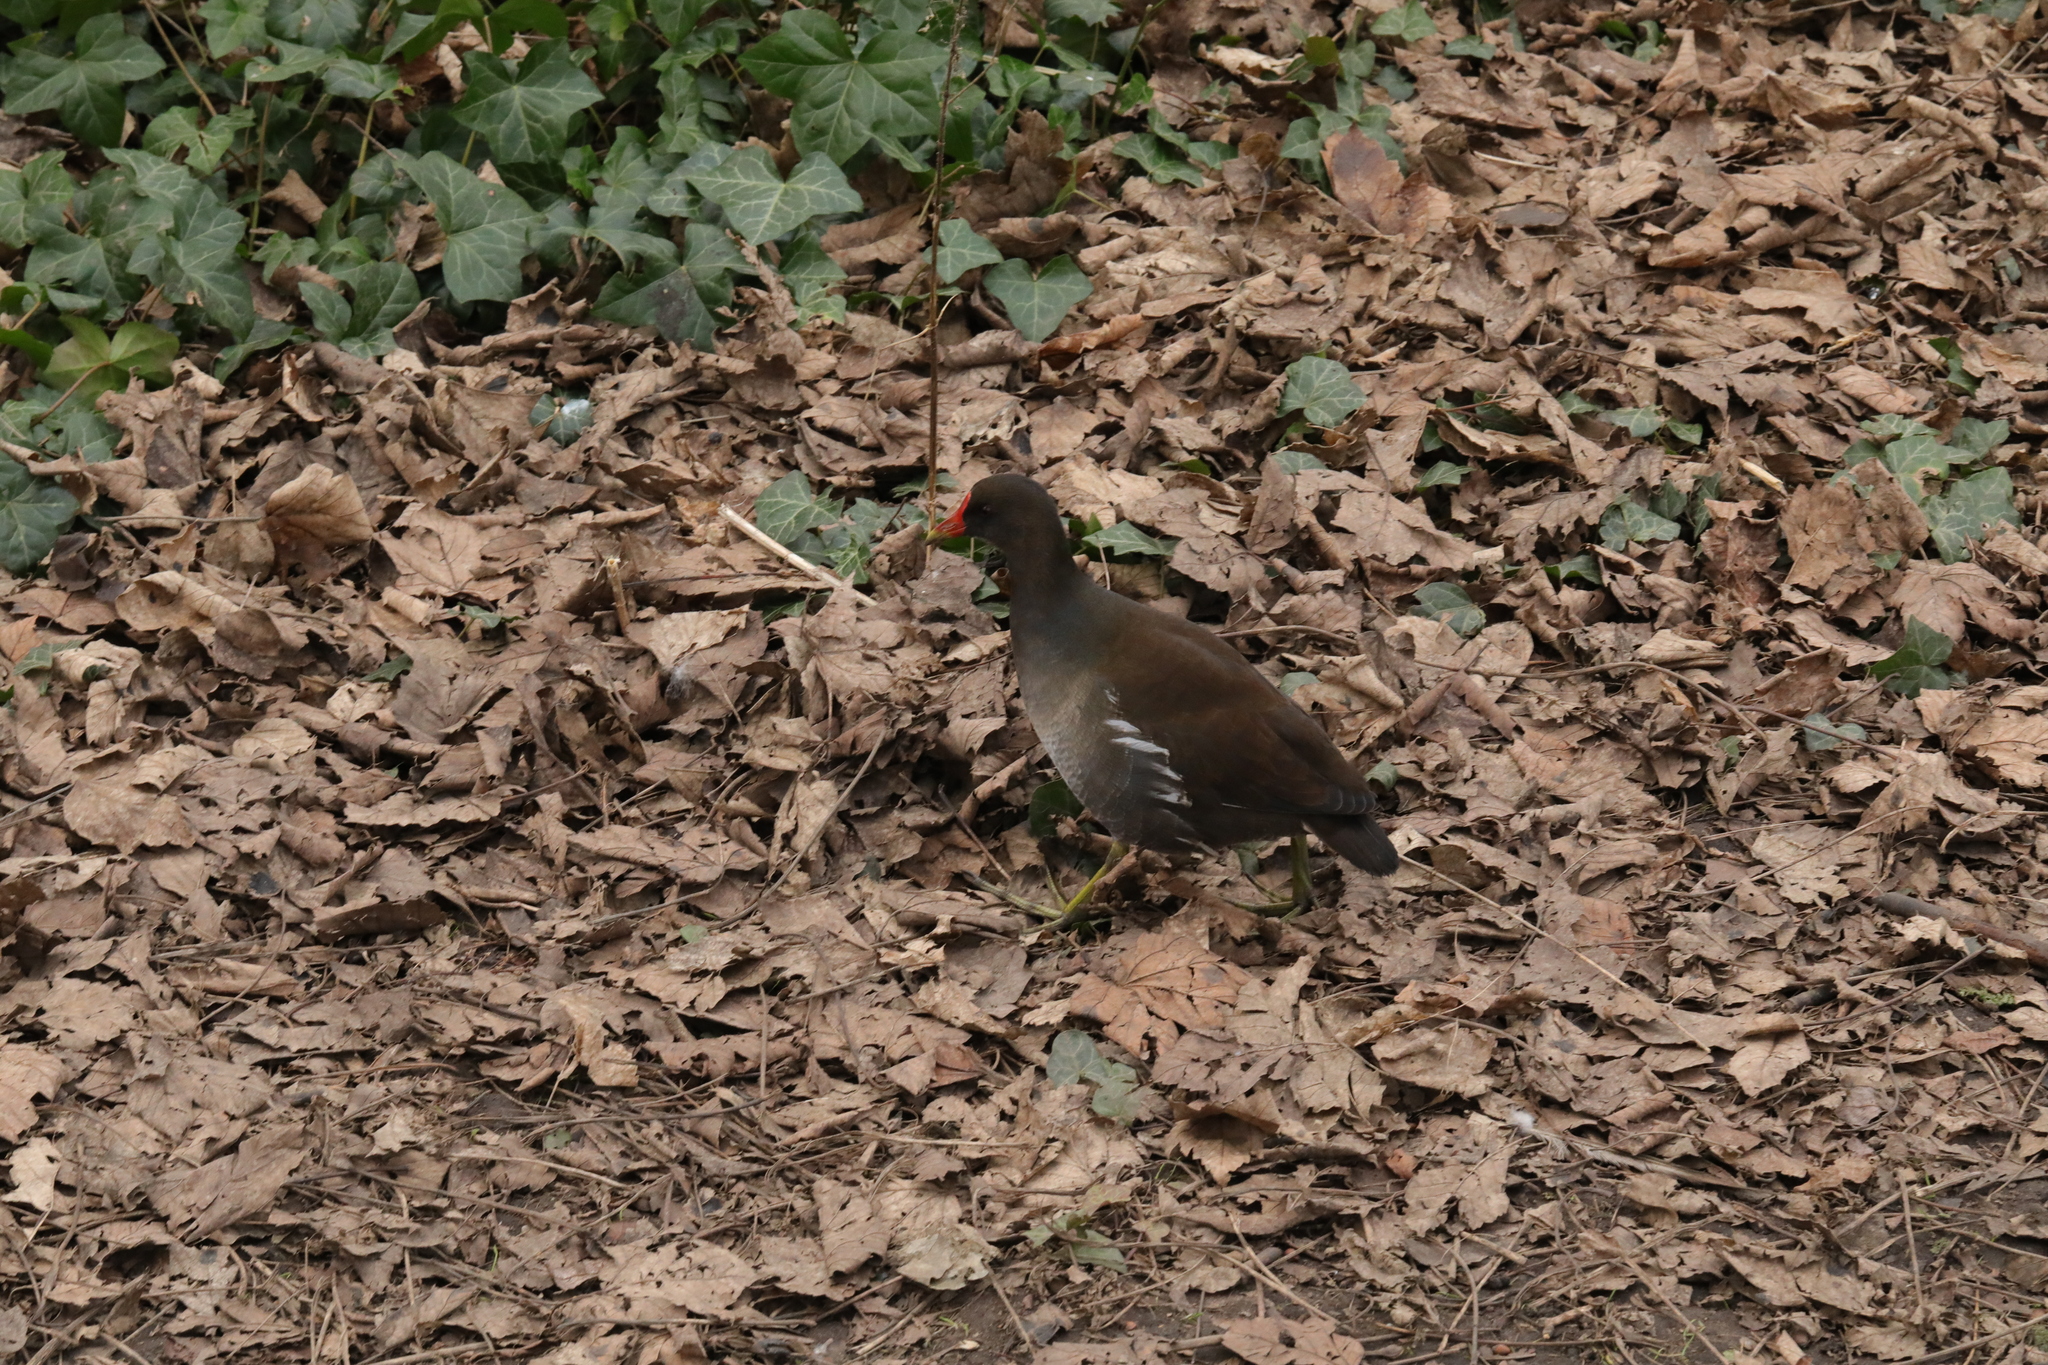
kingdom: Animalia
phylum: Chordata
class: Aves
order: Gruiformes
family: Rallidae
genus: Gallinula
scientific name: Gallinula chloropus
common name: Common moorhen
